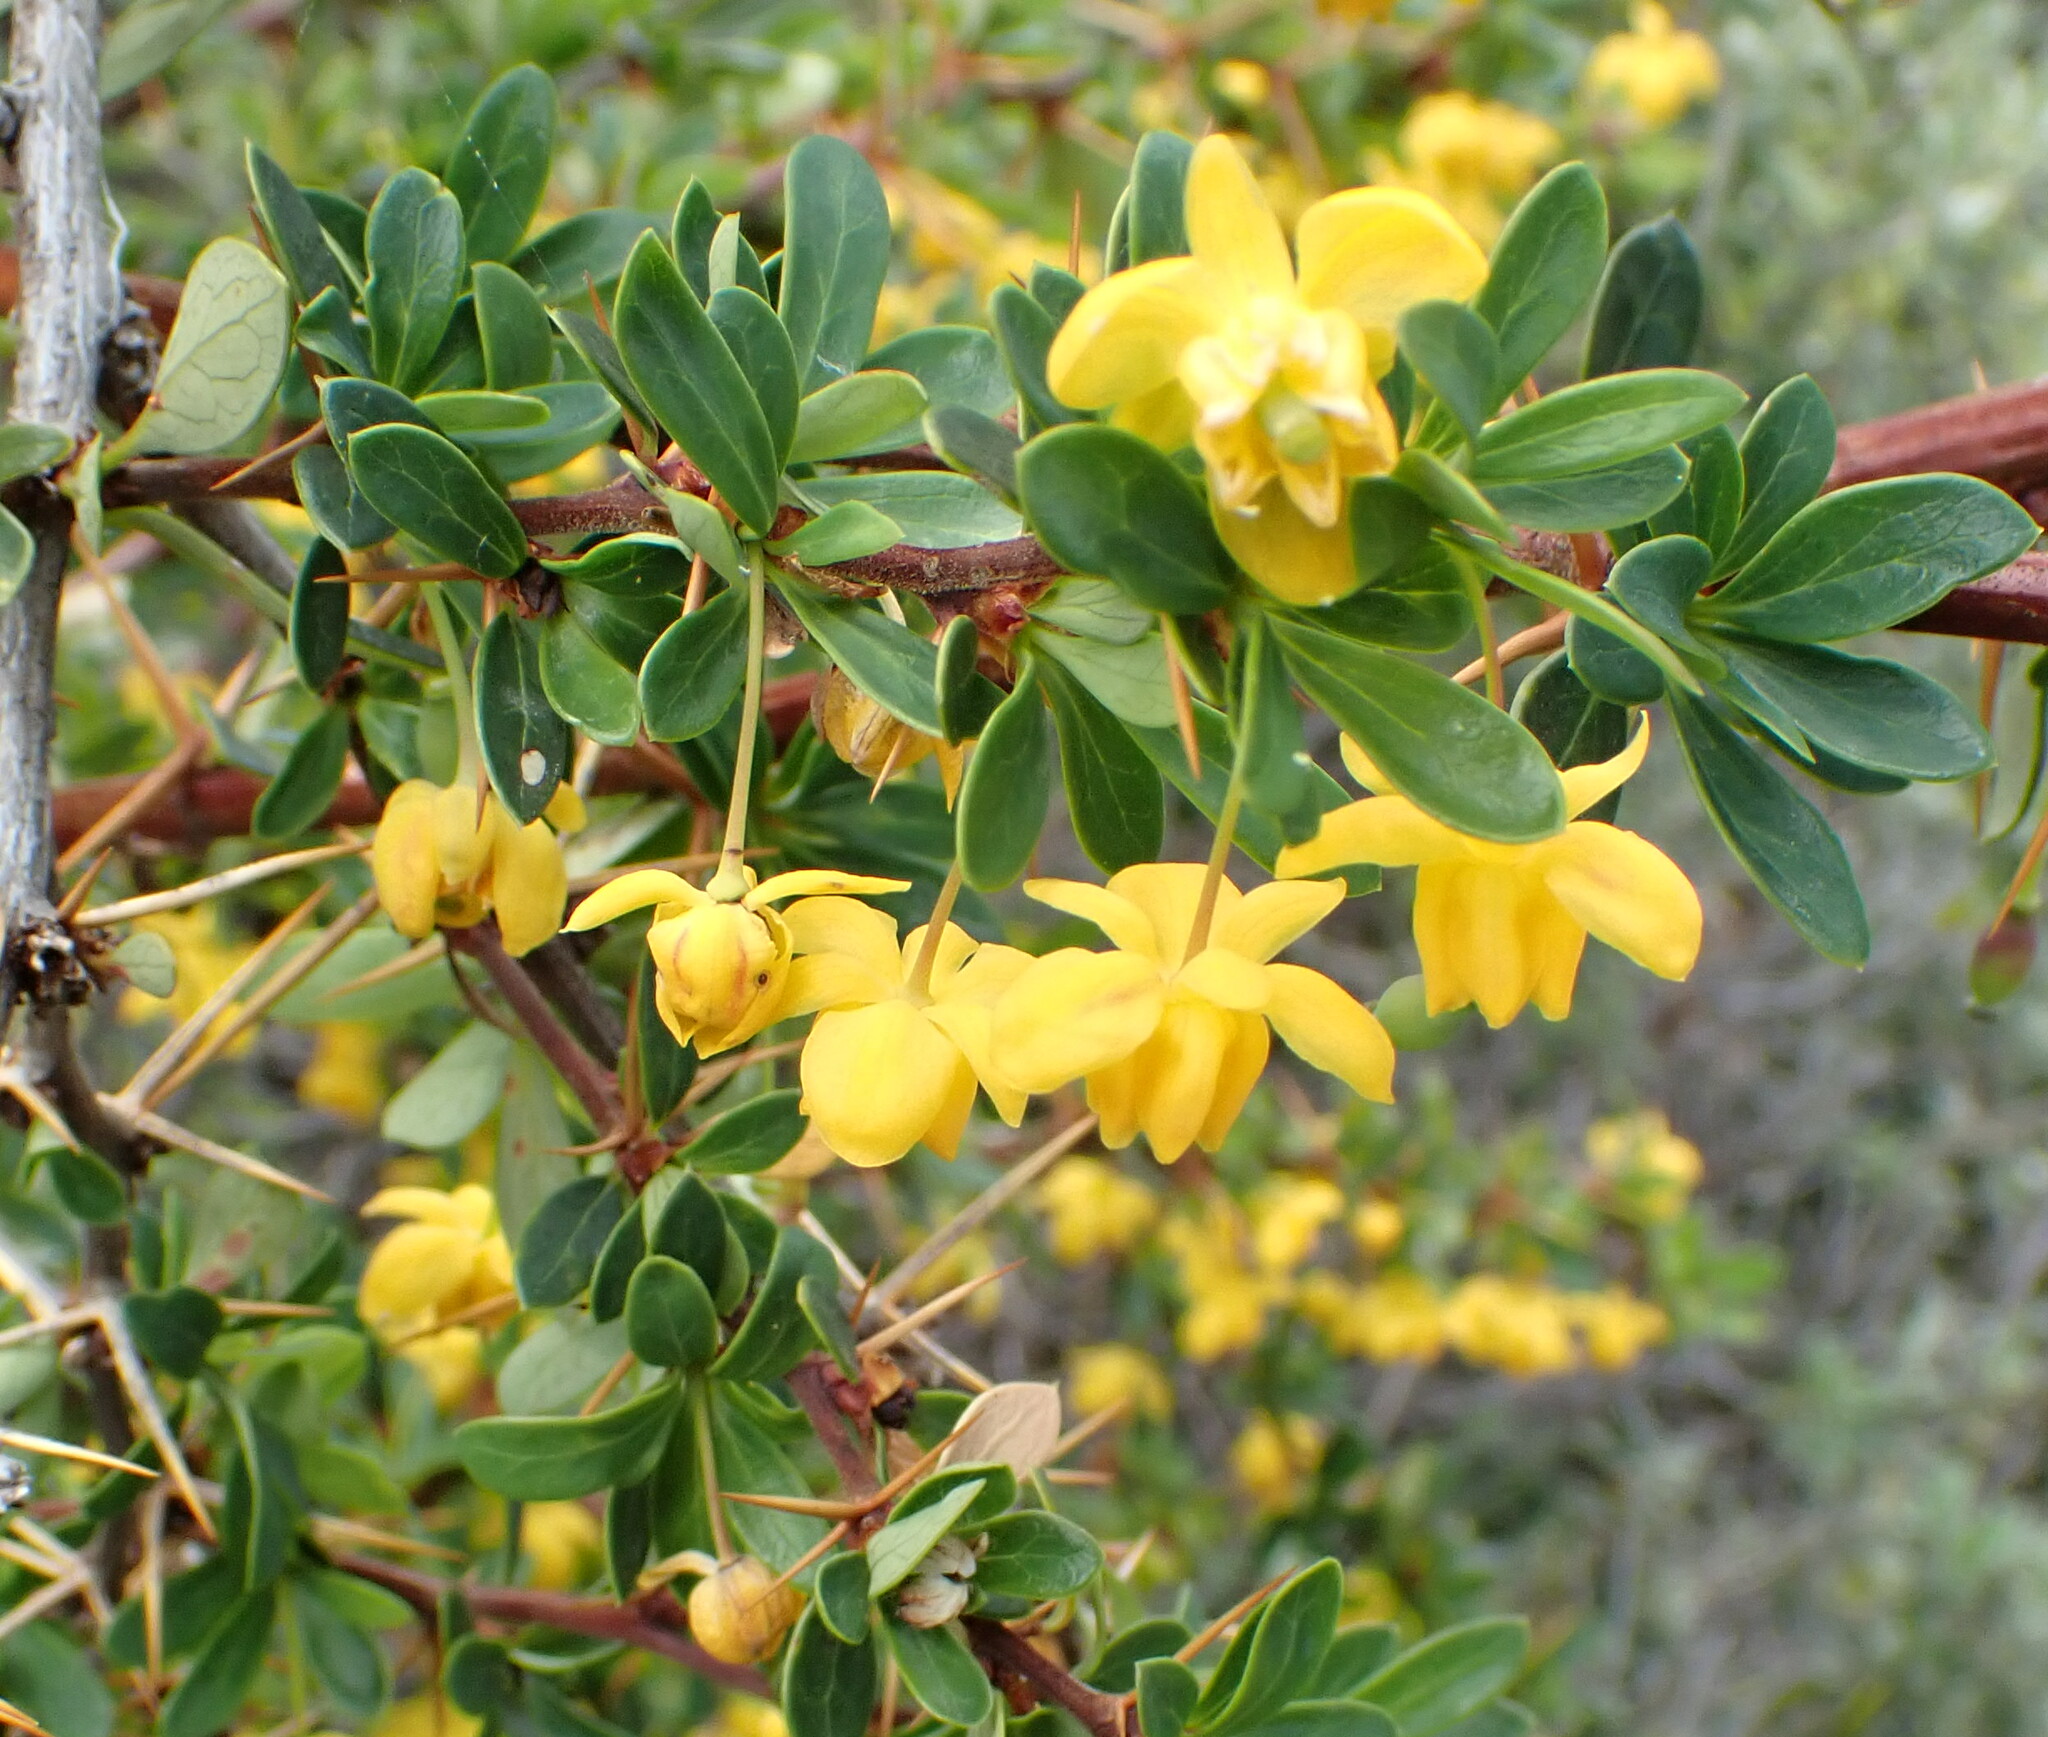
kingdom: Plantae
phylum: Tracheophyta
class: Magnoliopsida
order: Ranunculales
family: Berberidaceae
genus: Berberis
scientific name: Berberis microphylla
